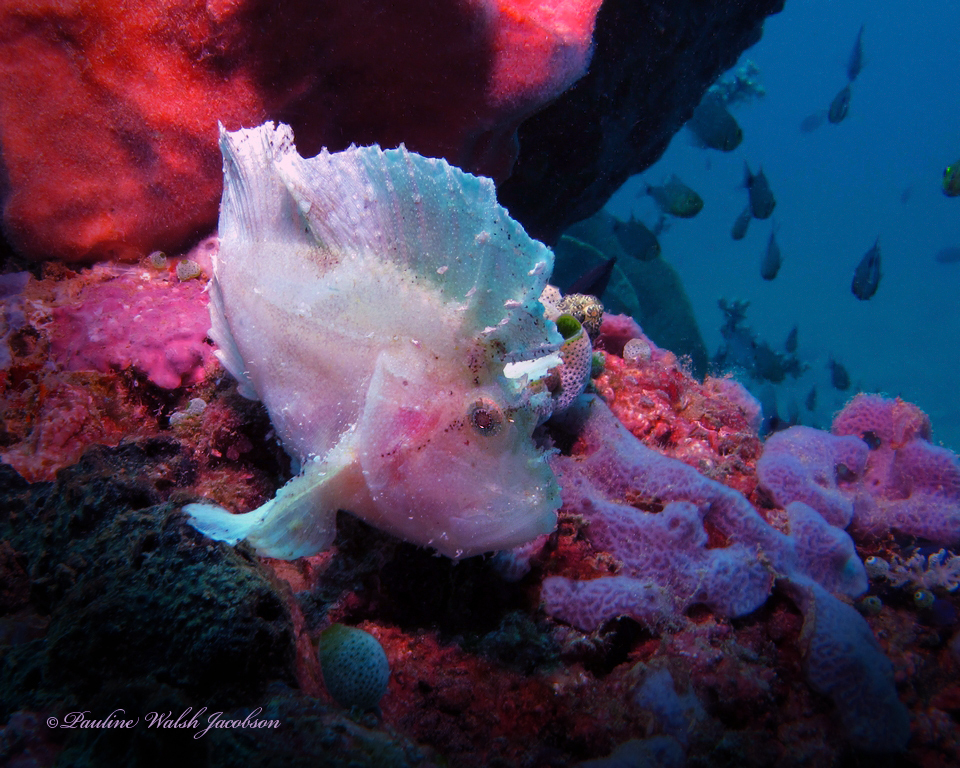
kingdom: Animalia
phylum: Chordata
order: Scorpaeniformes
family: Scorpaenidae
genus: Taenianotus
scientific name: Taenianotus triacanthus
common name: Leaf scorpionfish
